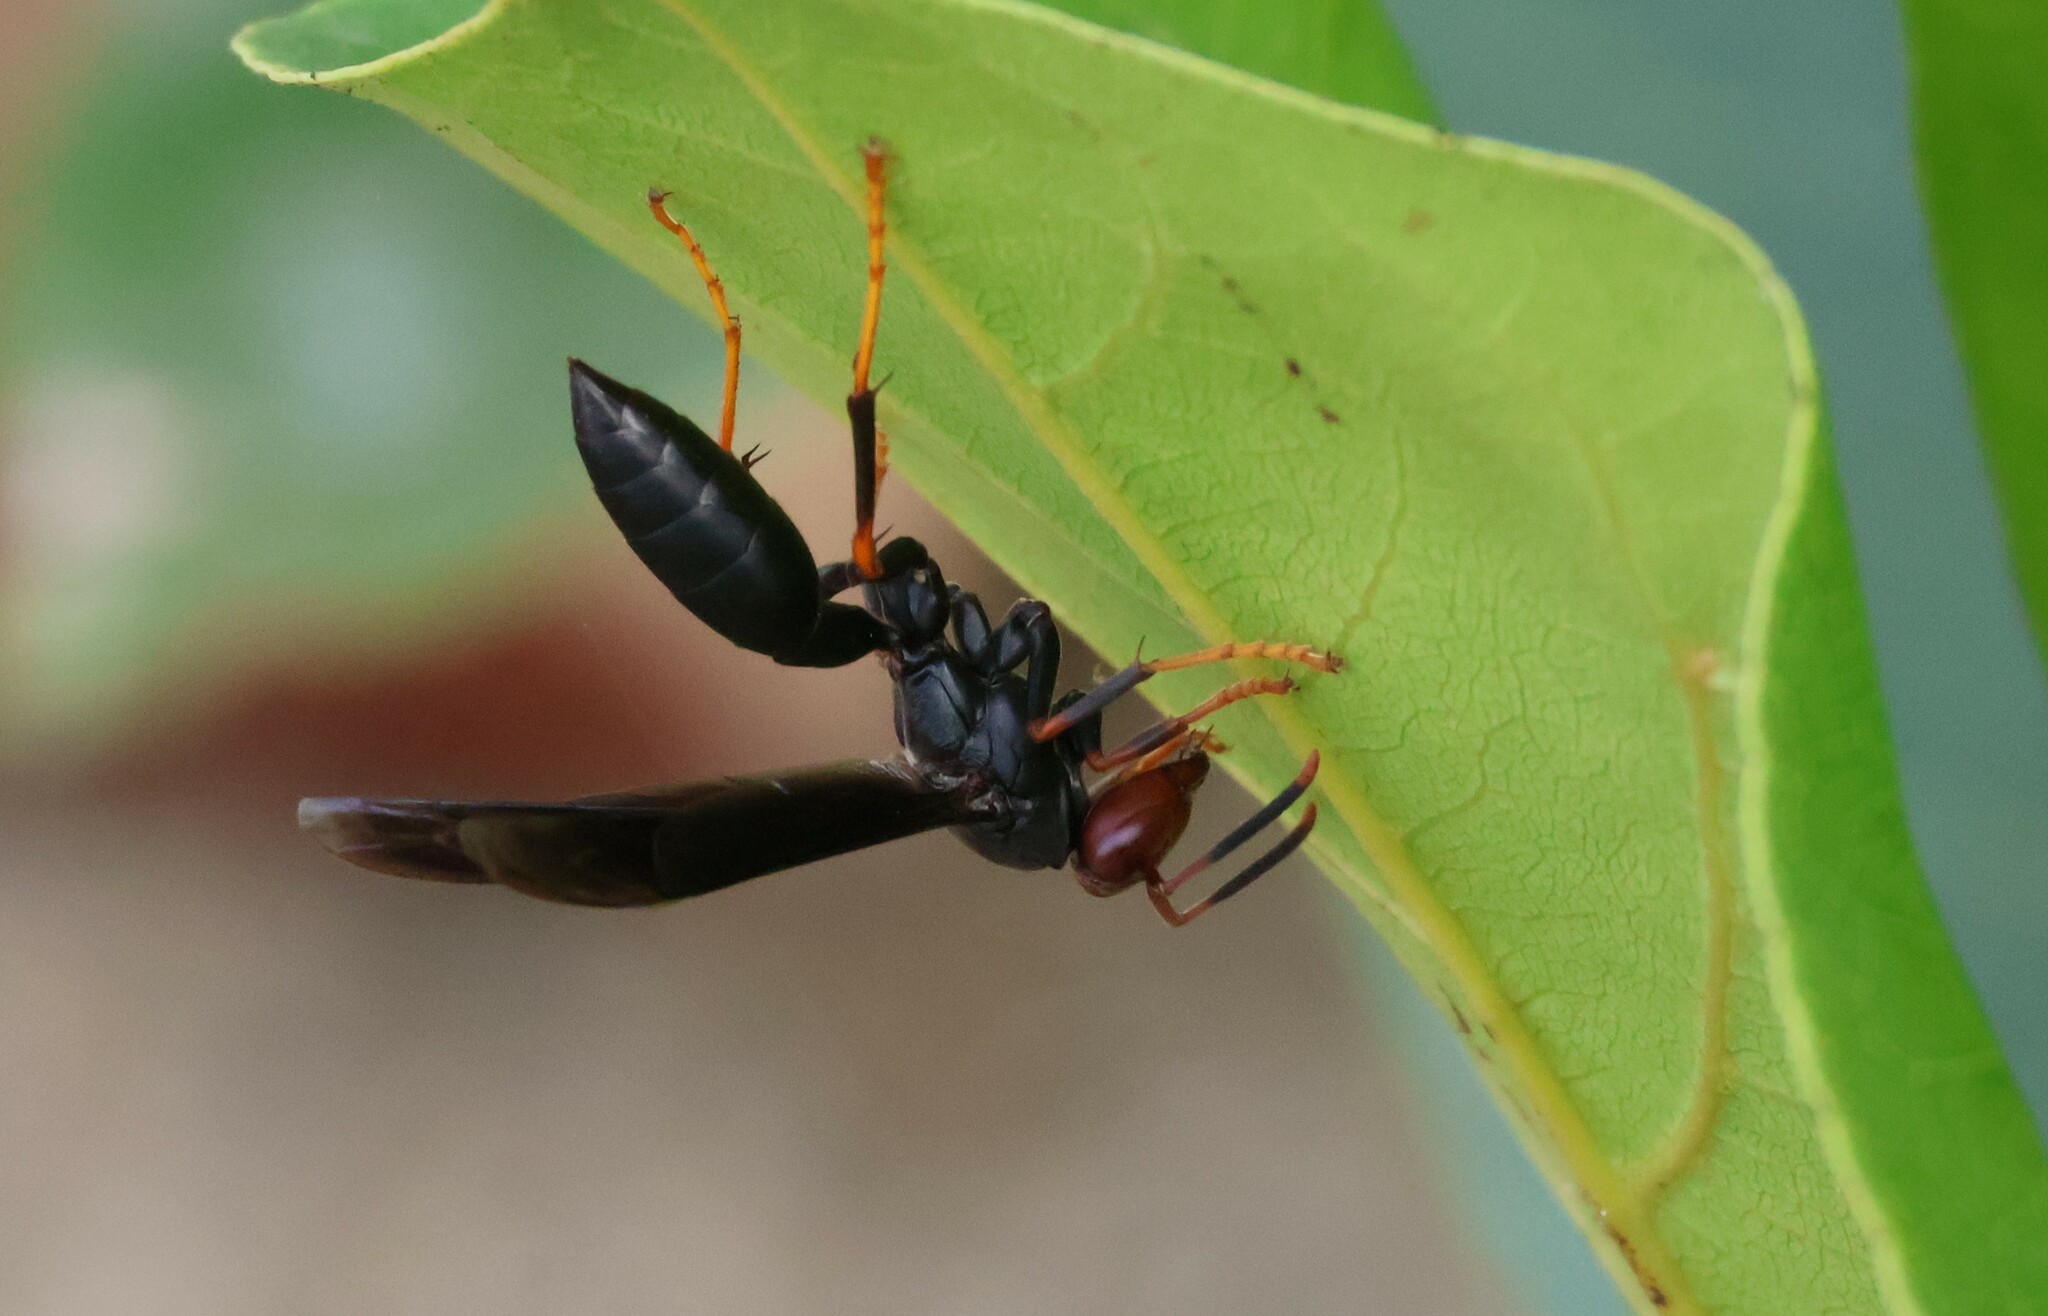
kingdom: Animalia
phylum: Arthropoda
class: Insecta
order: Hymenoptera
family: Eumenidae
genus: Polistes
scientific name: Polistes erythrocephalus
